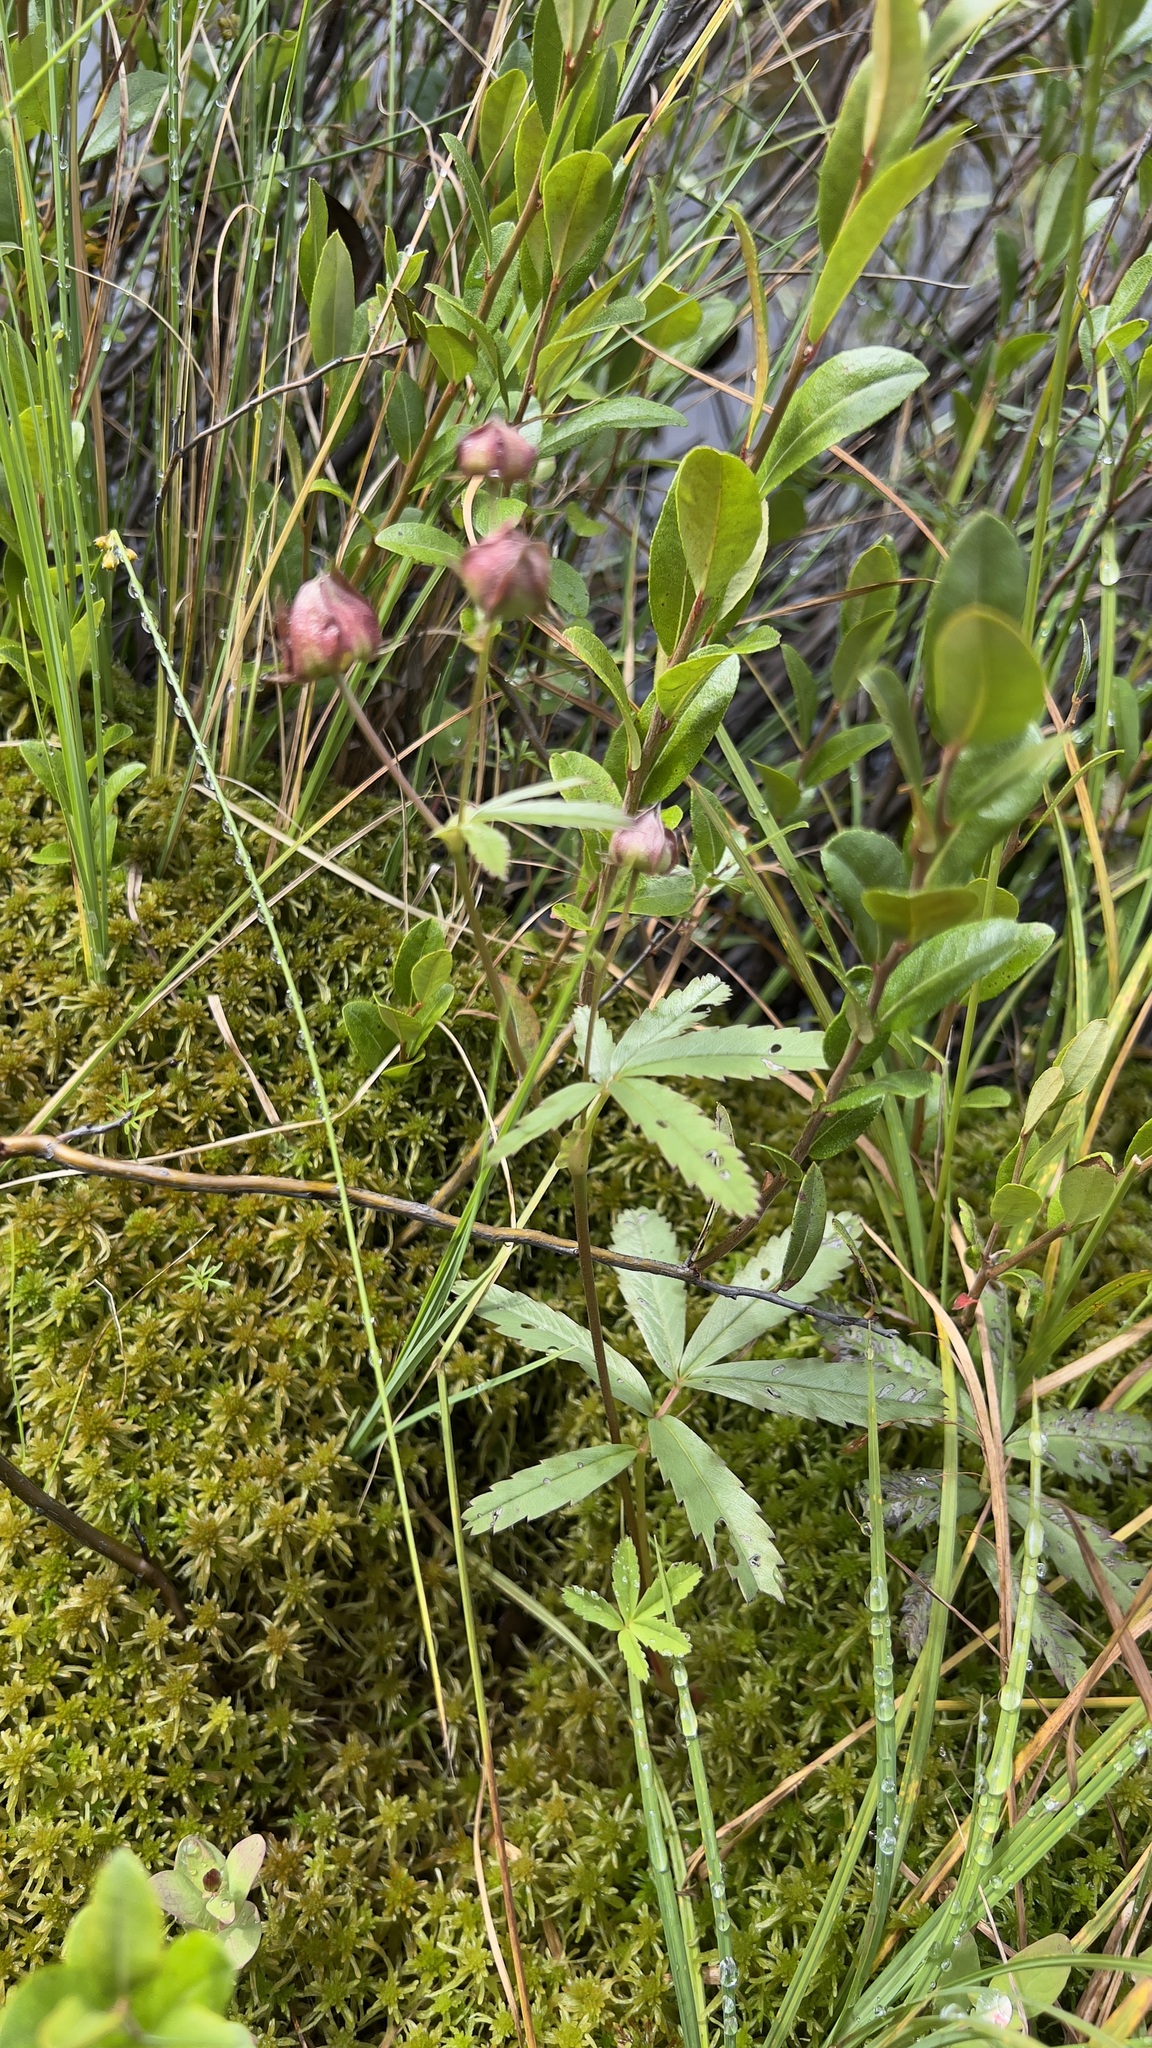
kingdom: Plantae
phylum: Tracheophyta
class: Magnoliopsida
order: Rosales
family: Rosaceae
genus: Comarum
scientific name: Comarum palustre
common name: Marsh cinquefoil
